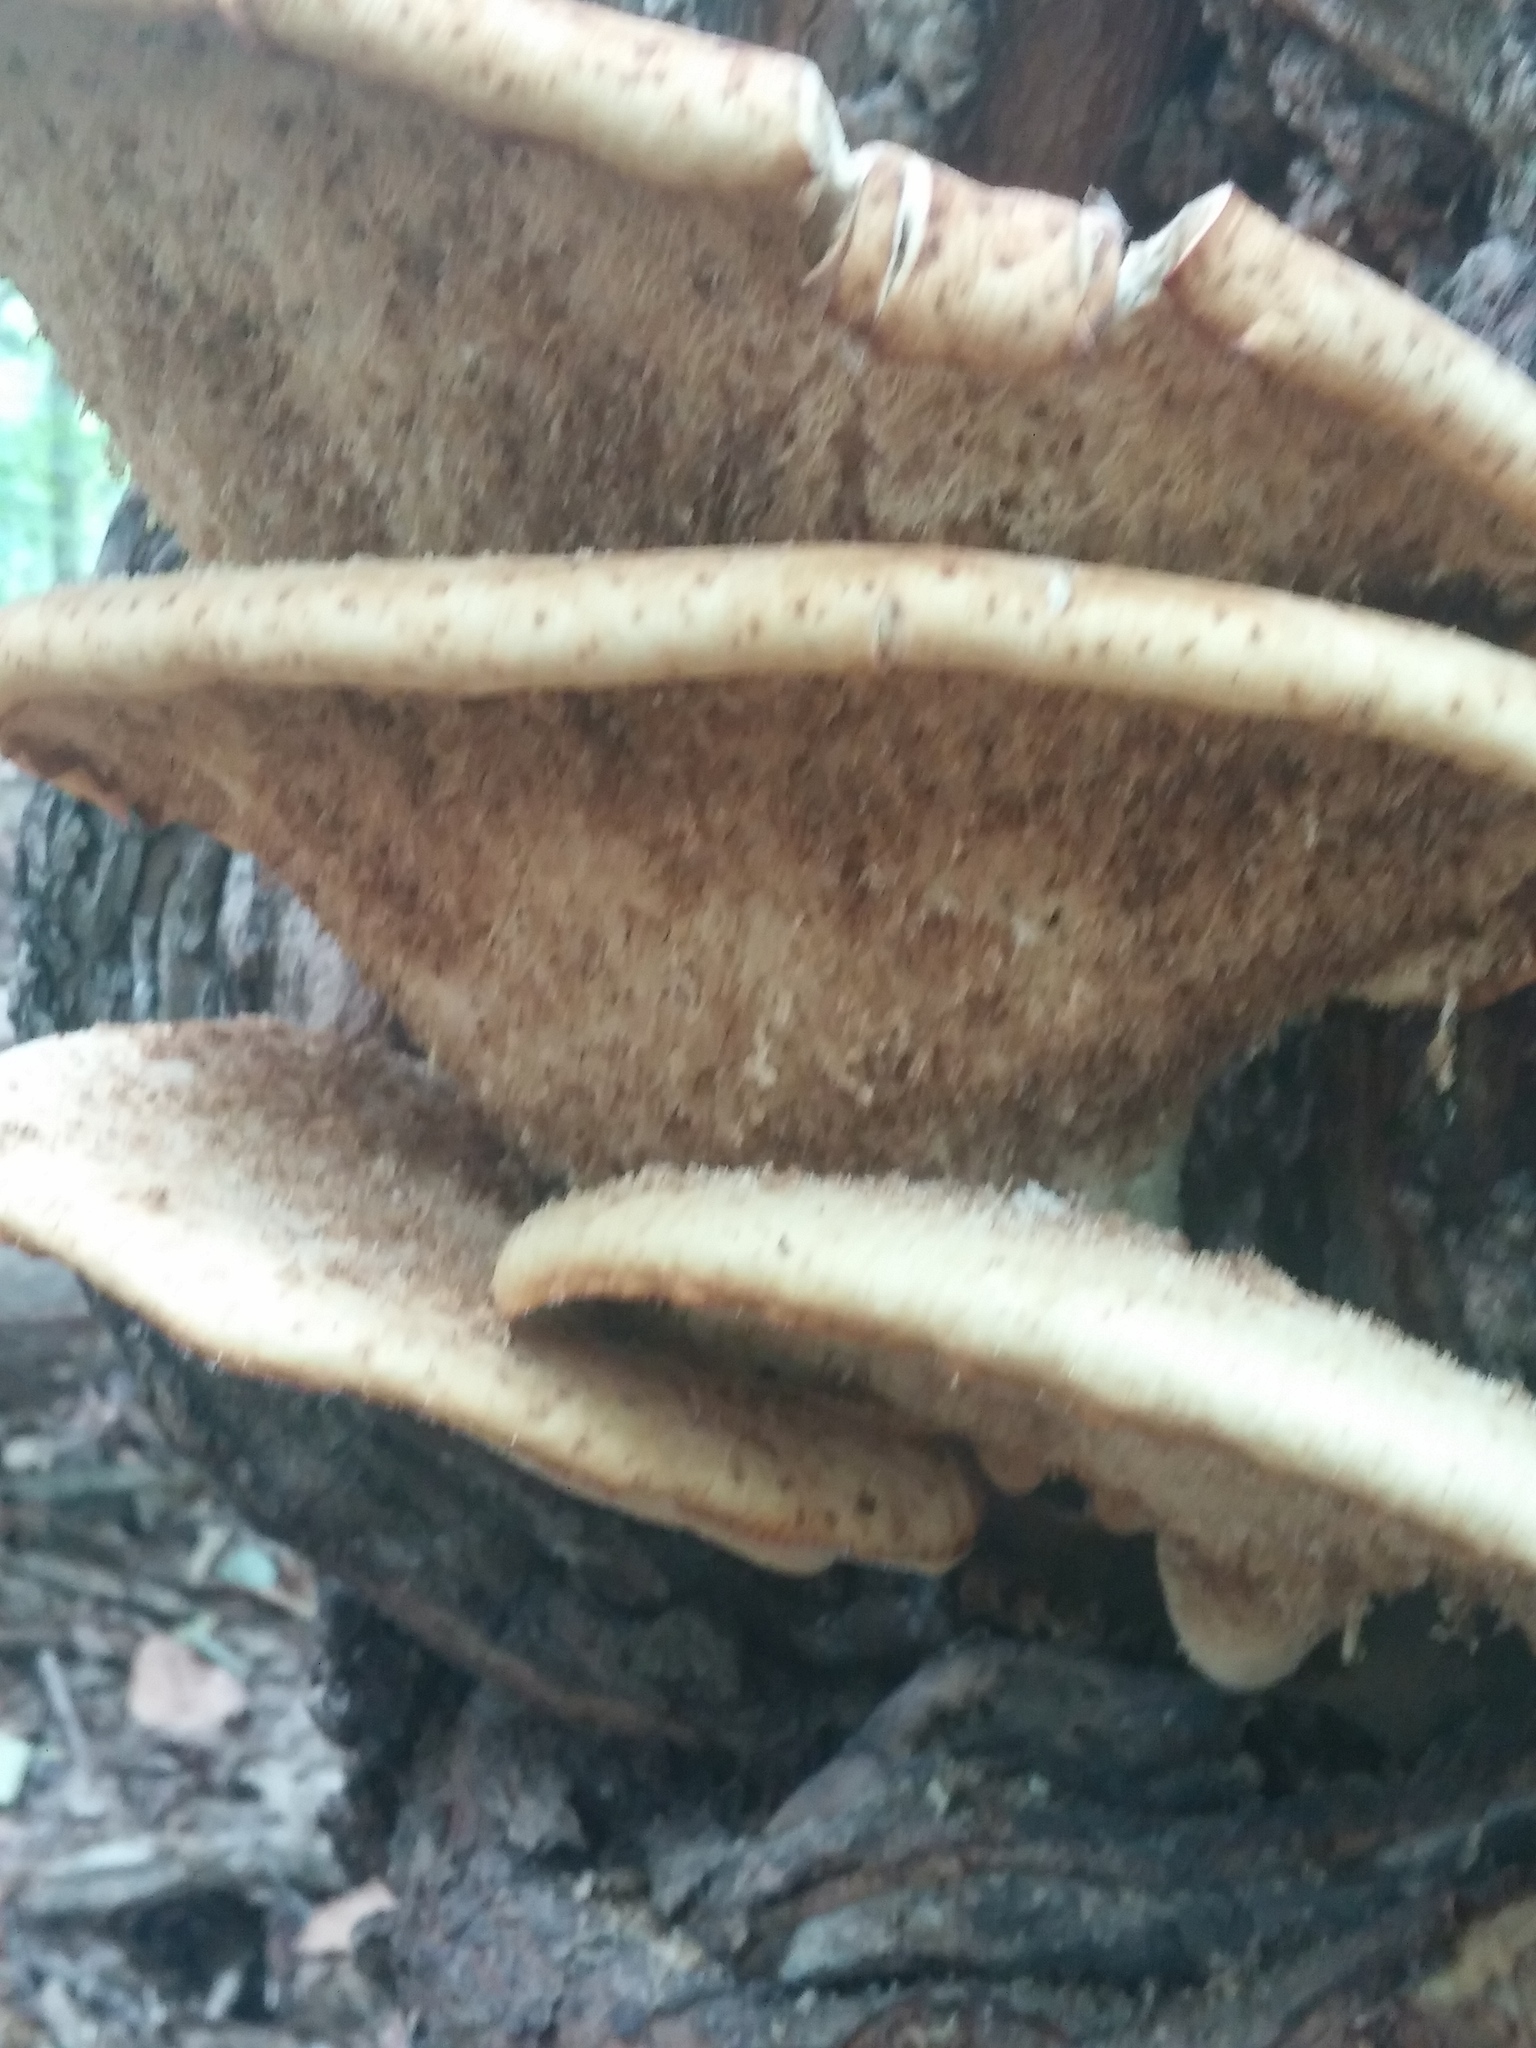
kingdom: Fungi
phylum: Basidiomycota
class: Agaricomycetes
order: Polyporales
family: Polyporaceae
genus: Cerioporus
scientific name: Cerioporus squamosus
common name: Dryad's saddle
